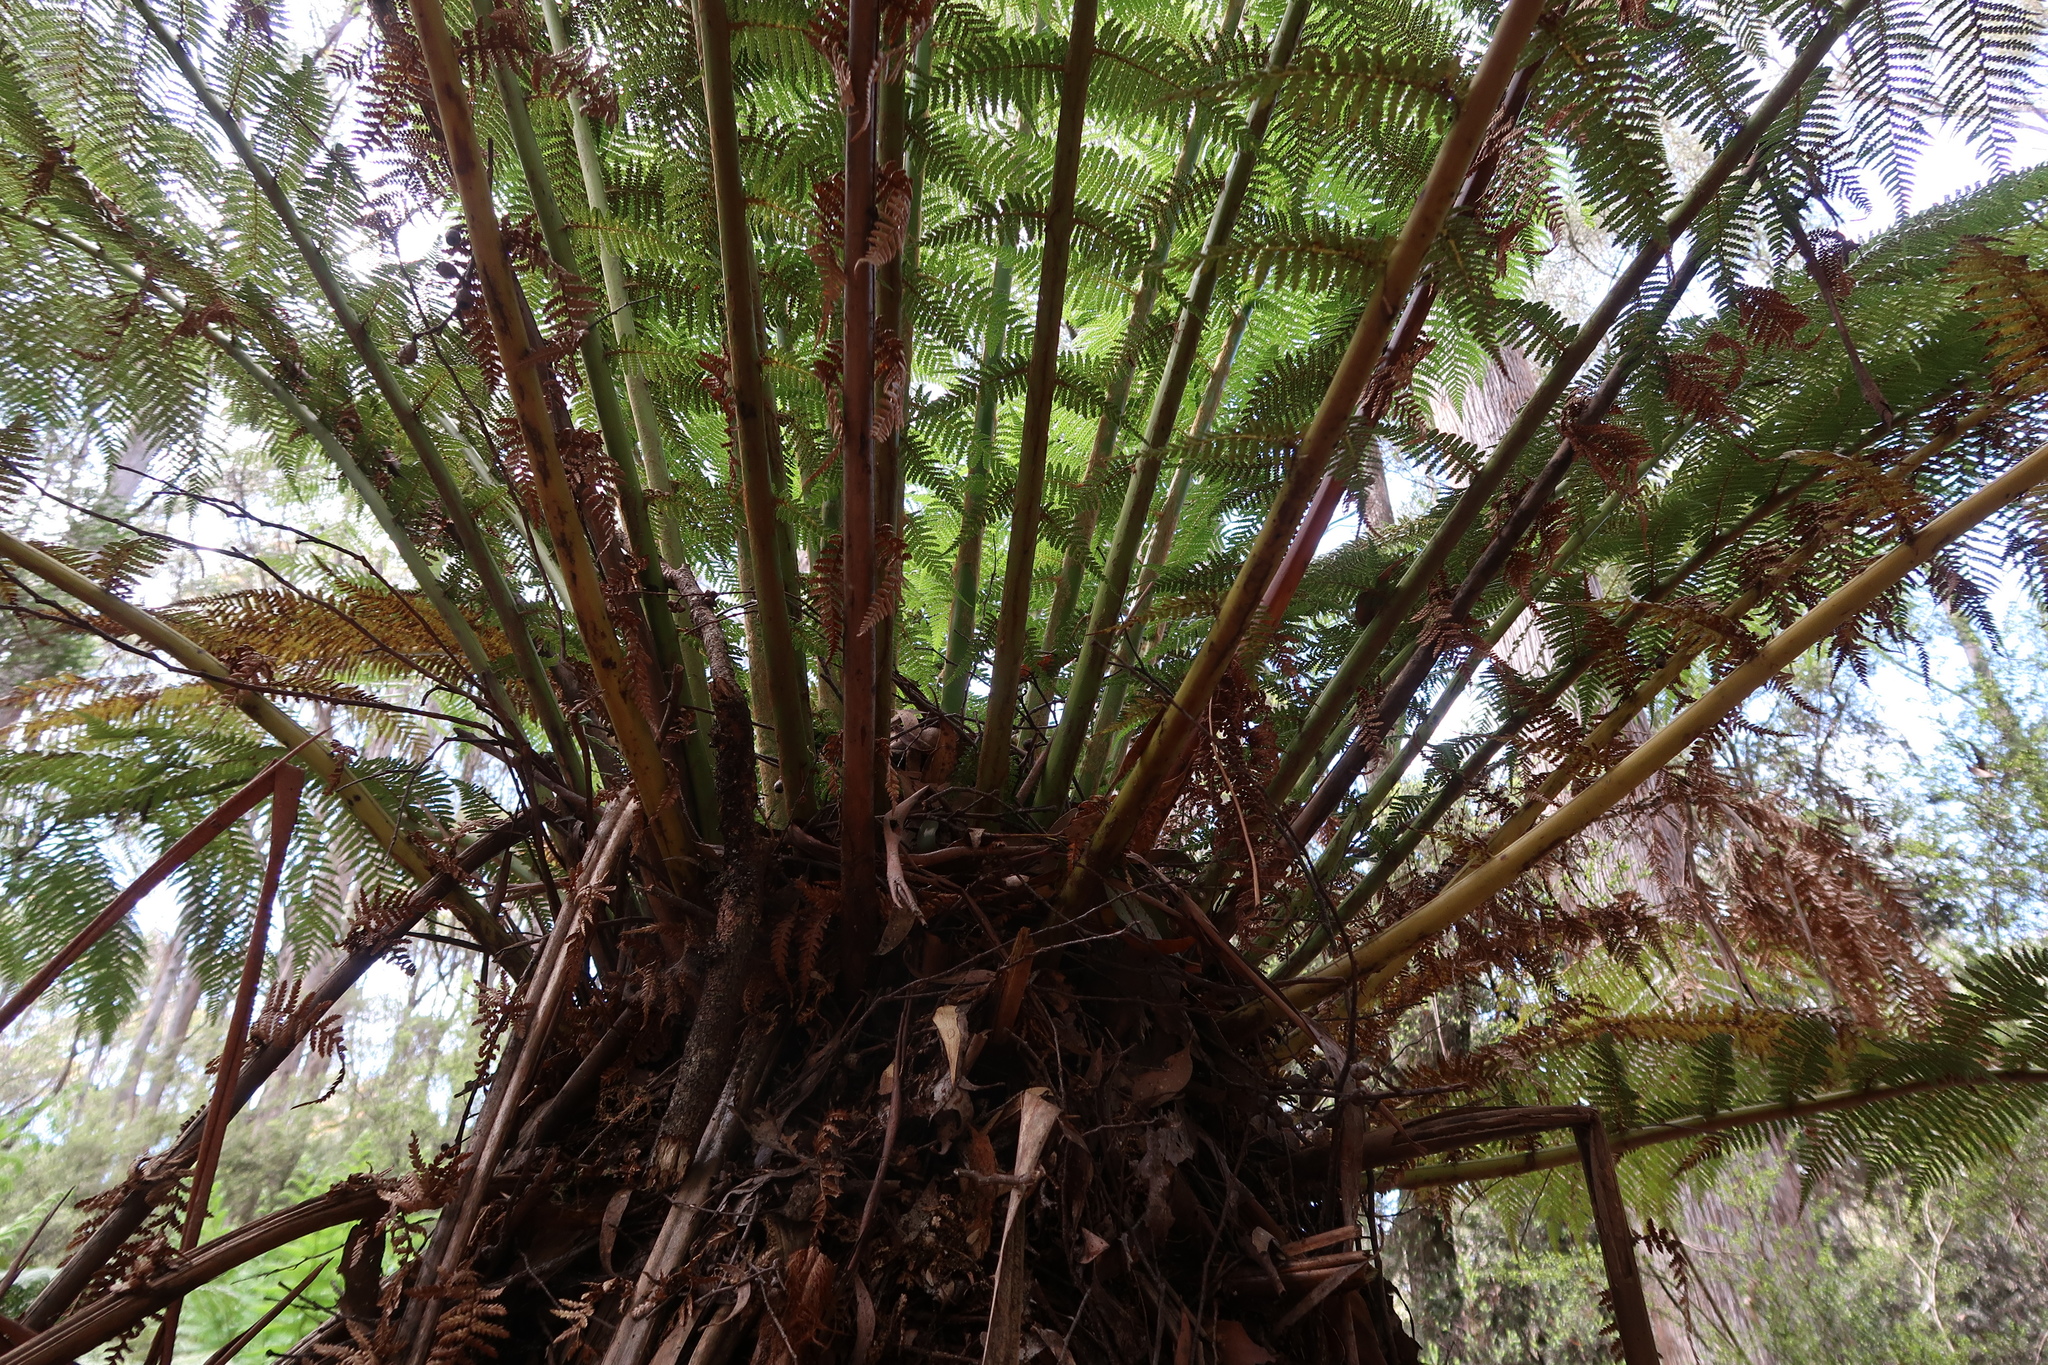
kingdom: Plantae
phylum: Tracheophyta
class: Polypodiopsida
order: Cyatheales
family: Dicksoniaceae
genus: Dicksonia
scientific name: Dicksonia antarctica
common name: Australian treefern
